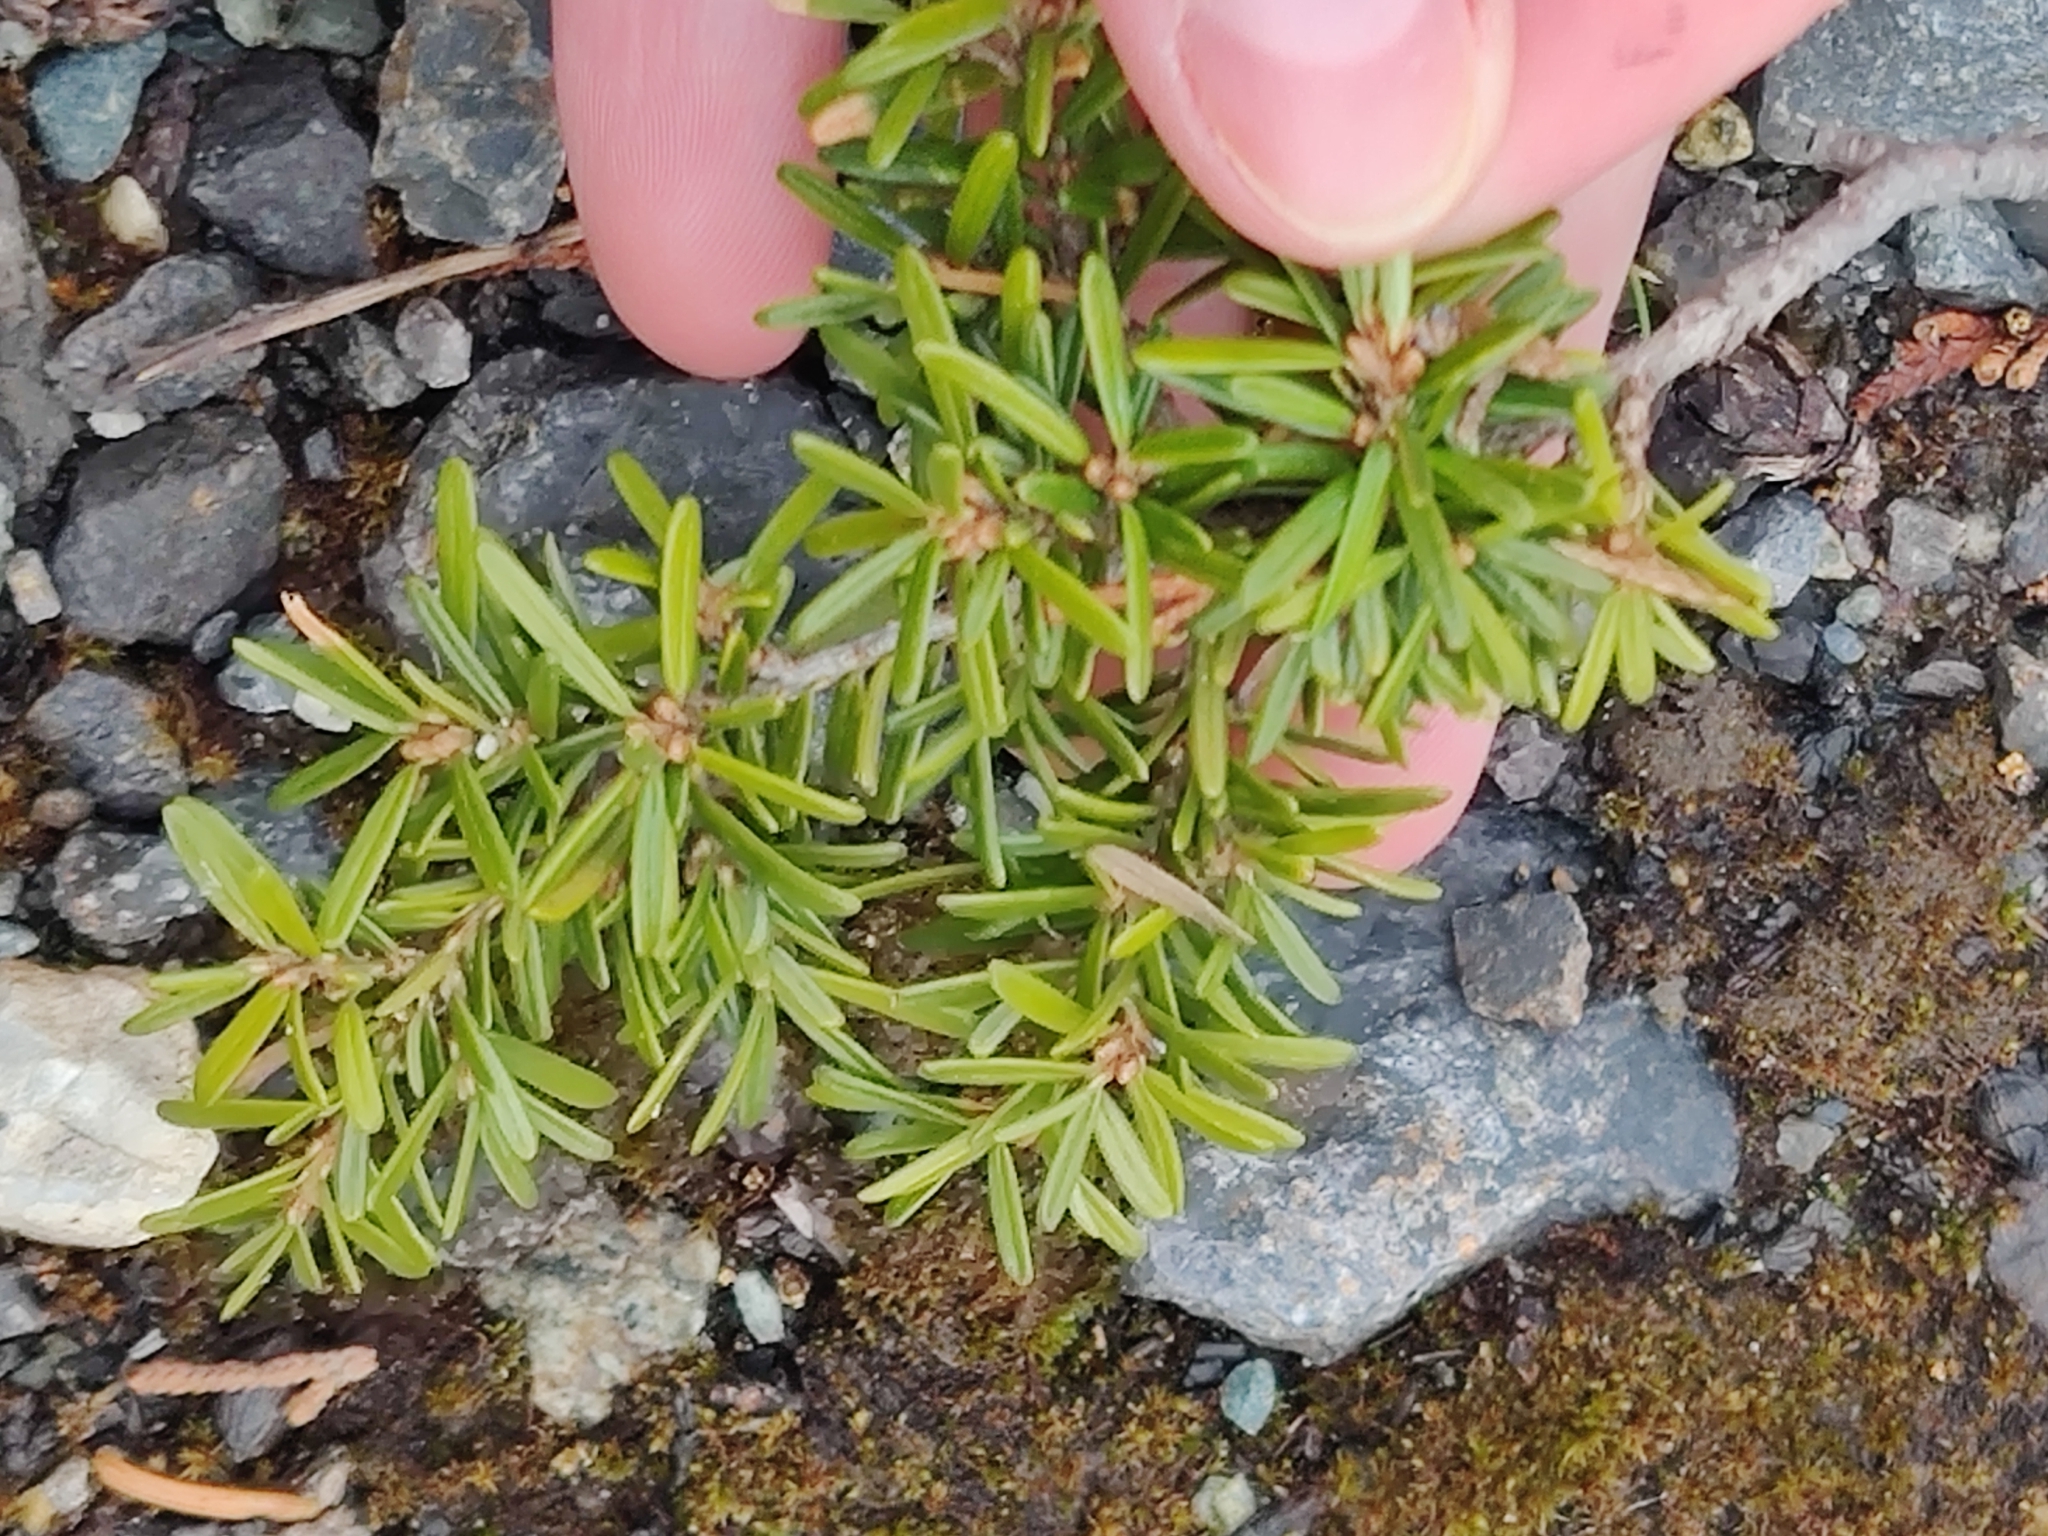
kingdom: Plantae
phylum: Tracheophyta
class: Pinopsida
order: Pinales
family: Pinaceae
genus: Tsuga
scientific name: Tsuga heterophylla
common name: Western hemlock
